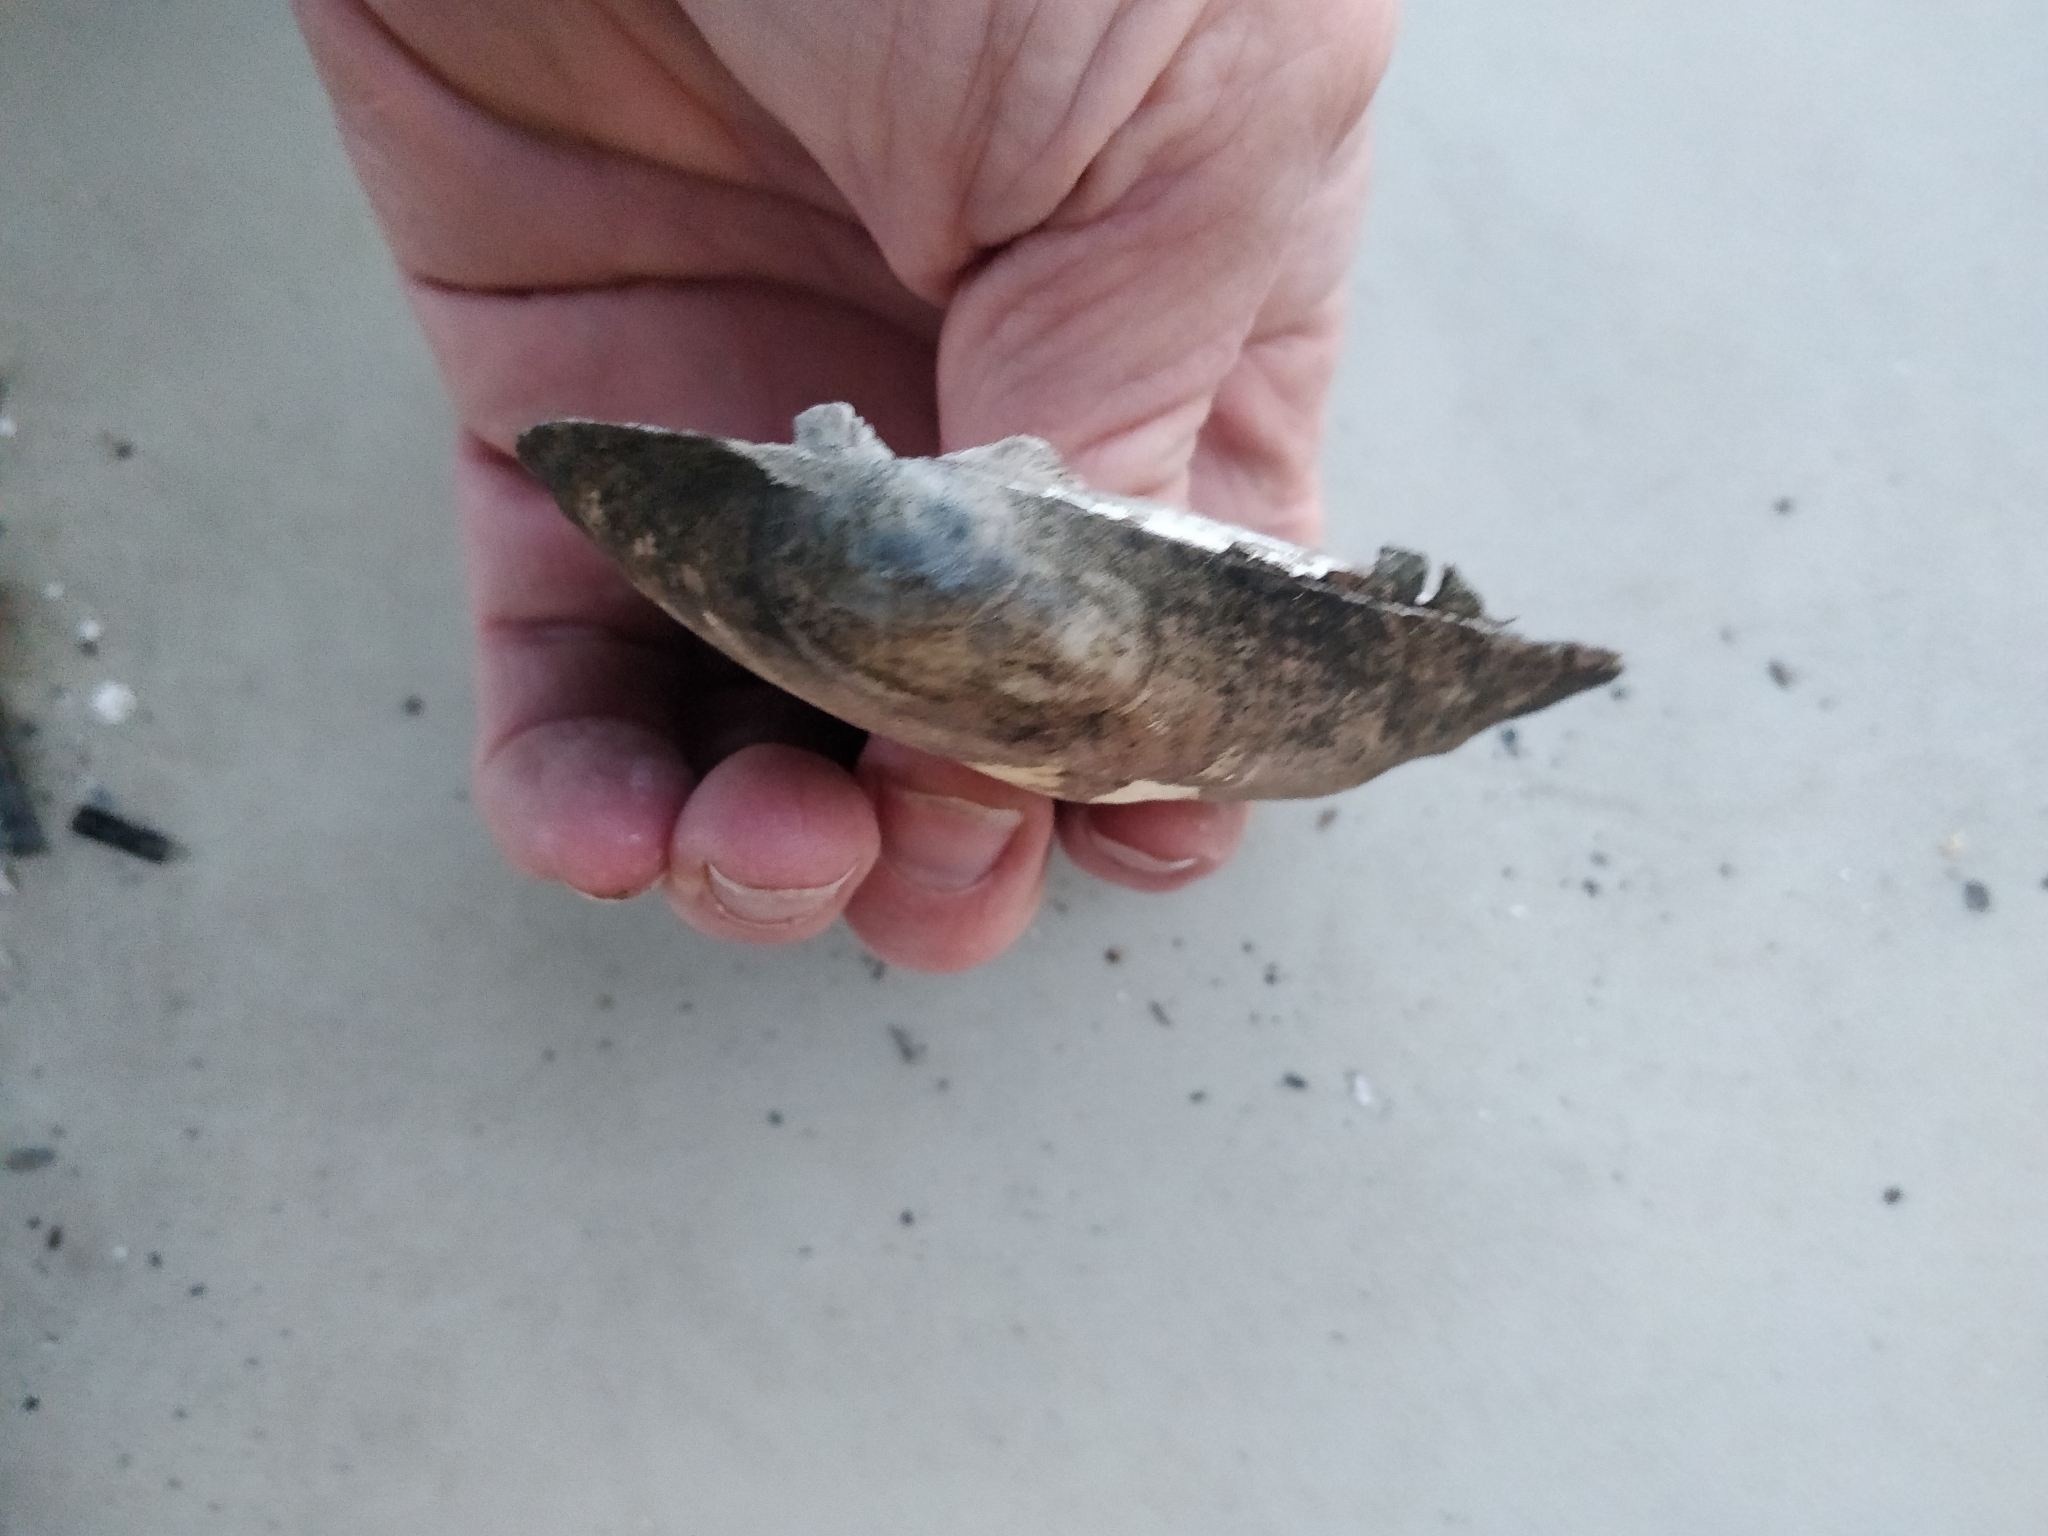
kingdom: Animalia
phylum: Mollusca
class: Bivalvia
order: Unionida
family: Unionidae
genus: Amblema
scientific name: Amblema plicata
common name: Threeridge
